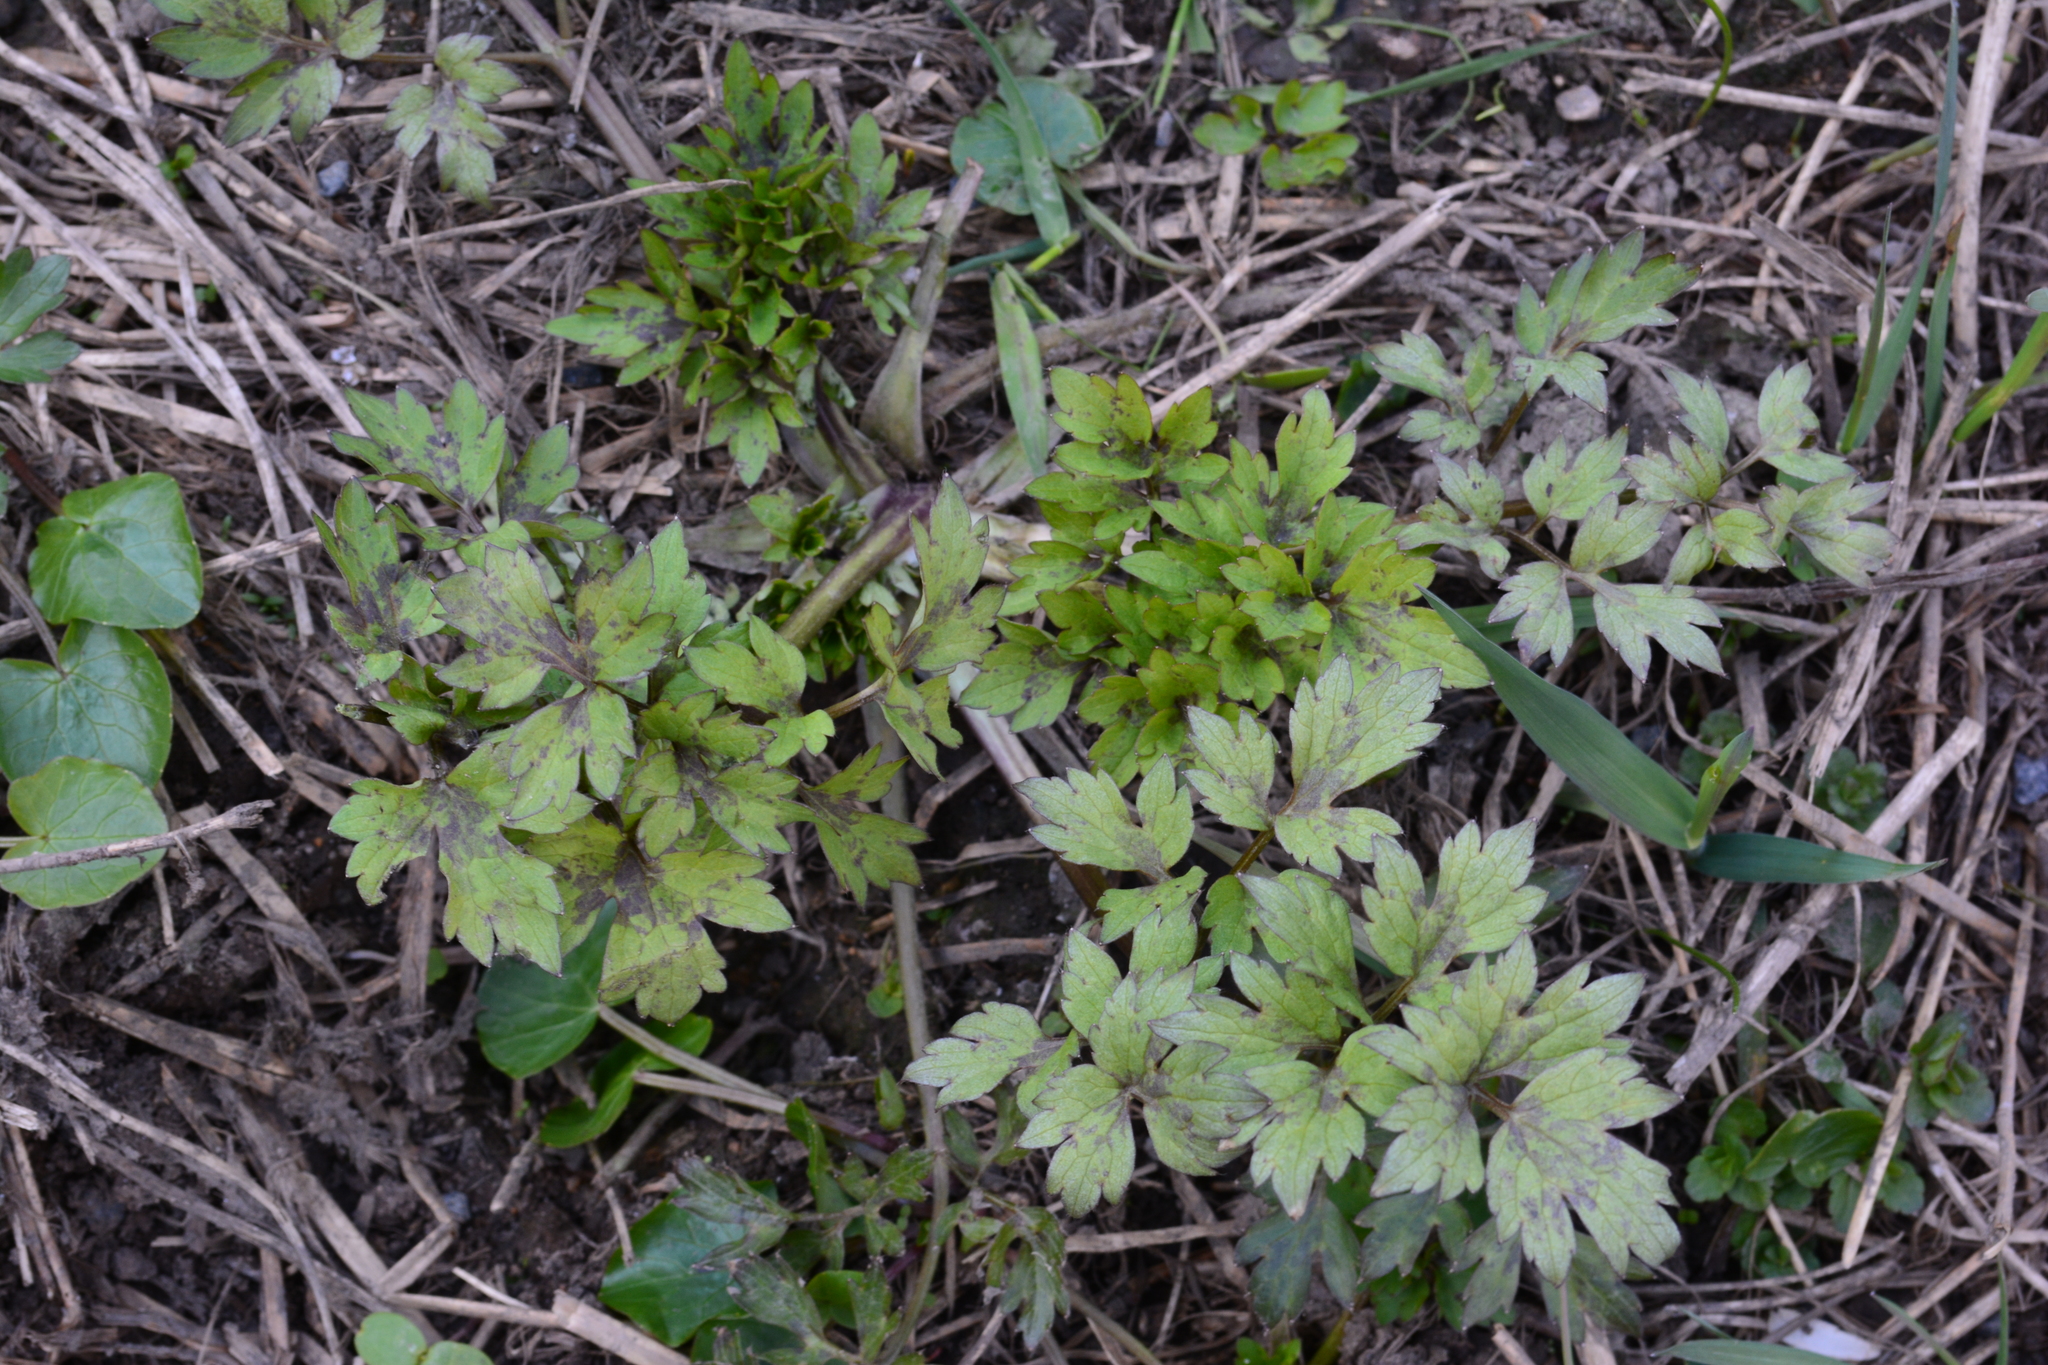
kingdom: Plantae
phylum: Tracheophyta
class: Magnoliopsida
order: Ranunculales
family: Ranunculaceae
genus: Ranunculus
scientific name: Ranunculus repens
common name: Creeping buttercup
